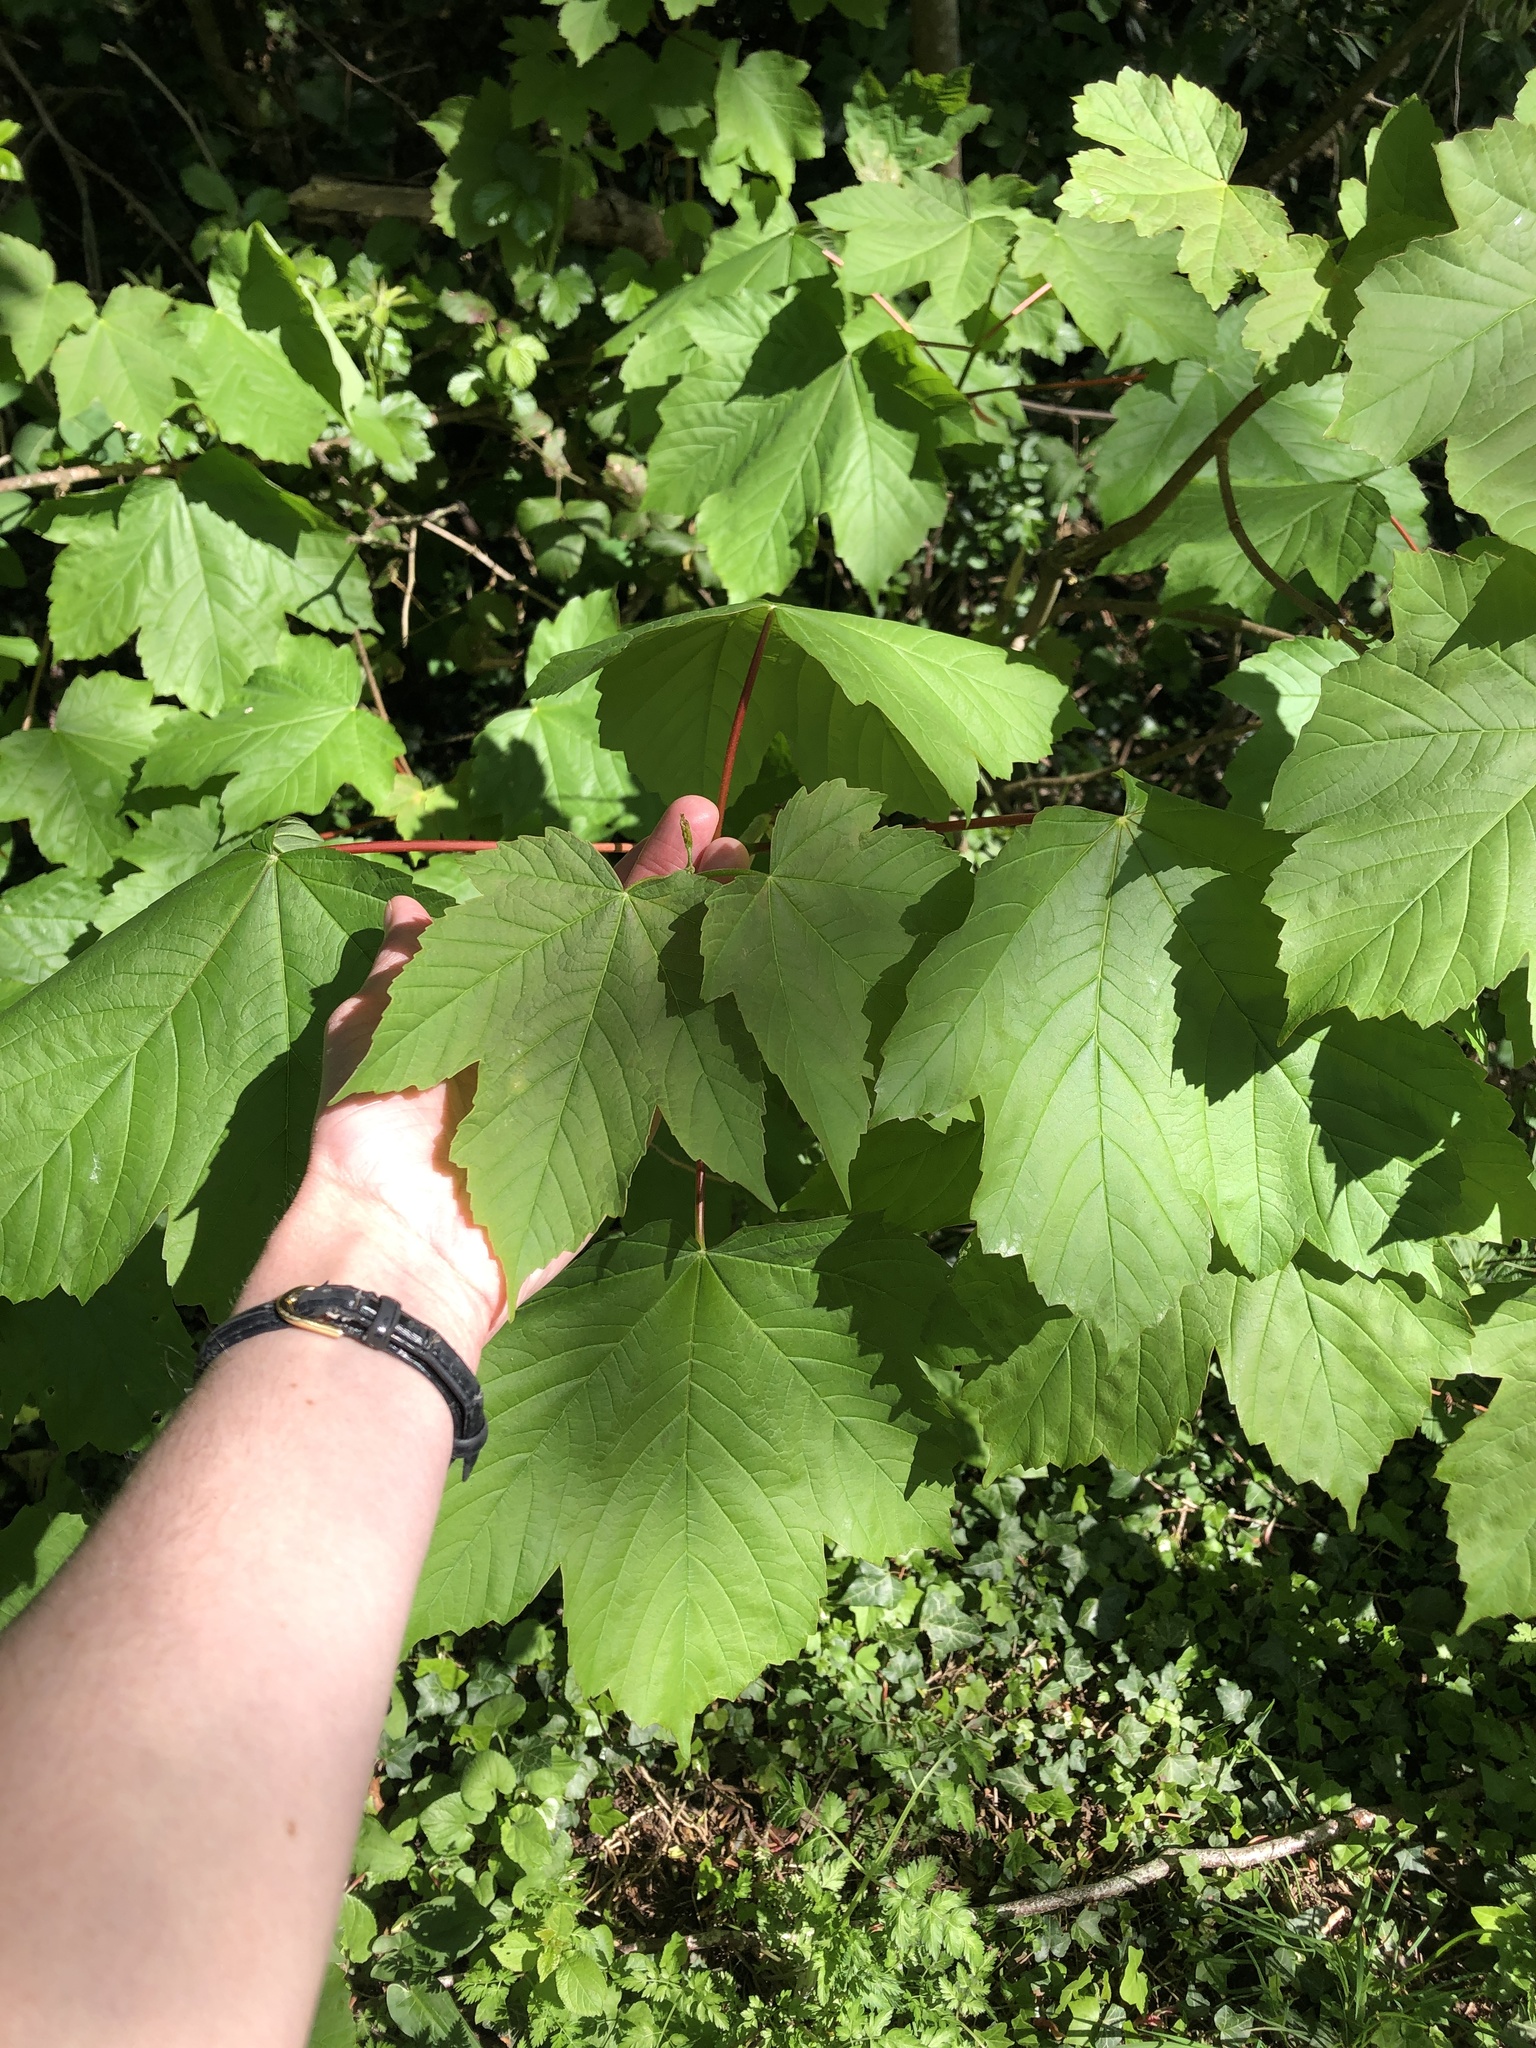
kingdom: Plantae
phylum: Tracheophyta
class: Magnoliopsida
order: Sapindales
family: Sapindaceae
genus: Acer
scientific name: Acer pseudoplatanus
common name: Sycamore
